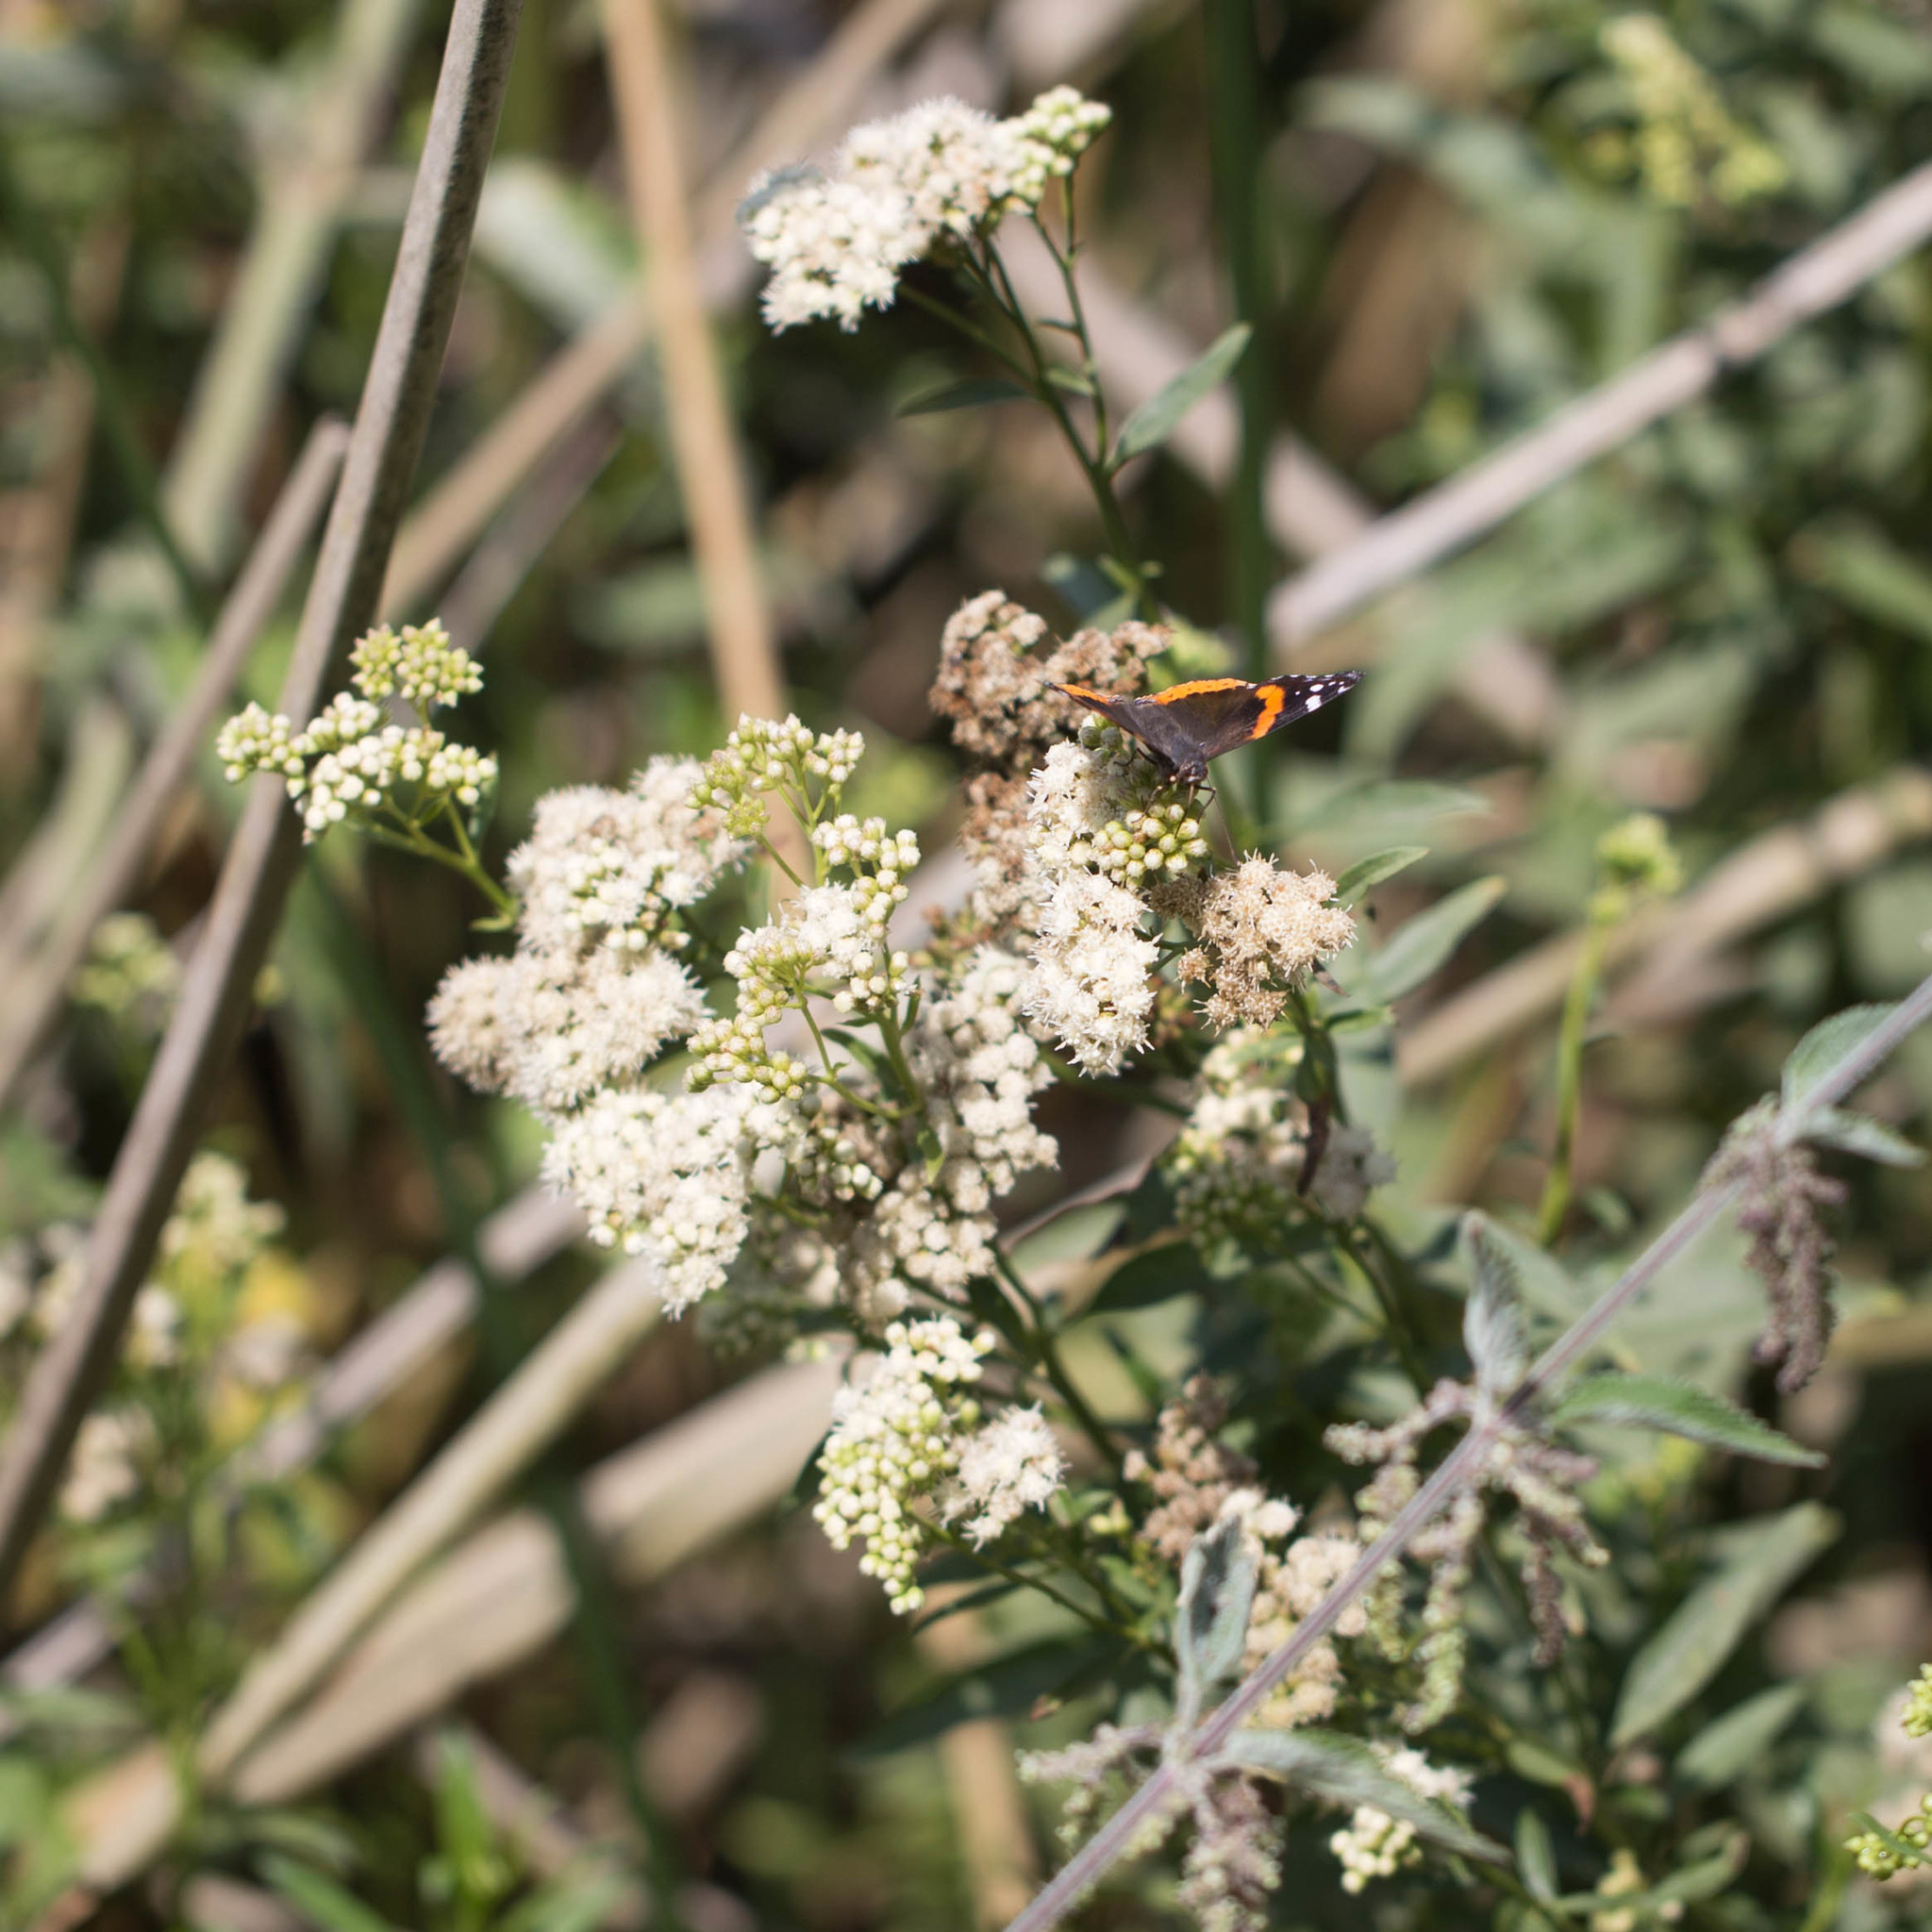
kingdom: Plantae
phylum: Tracheophyta
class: Magnoliopsida
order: Asterales
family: Asteraceae
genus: Baccharis
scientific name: Baccharis glutinosa
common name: Saltmarsh baccharis
